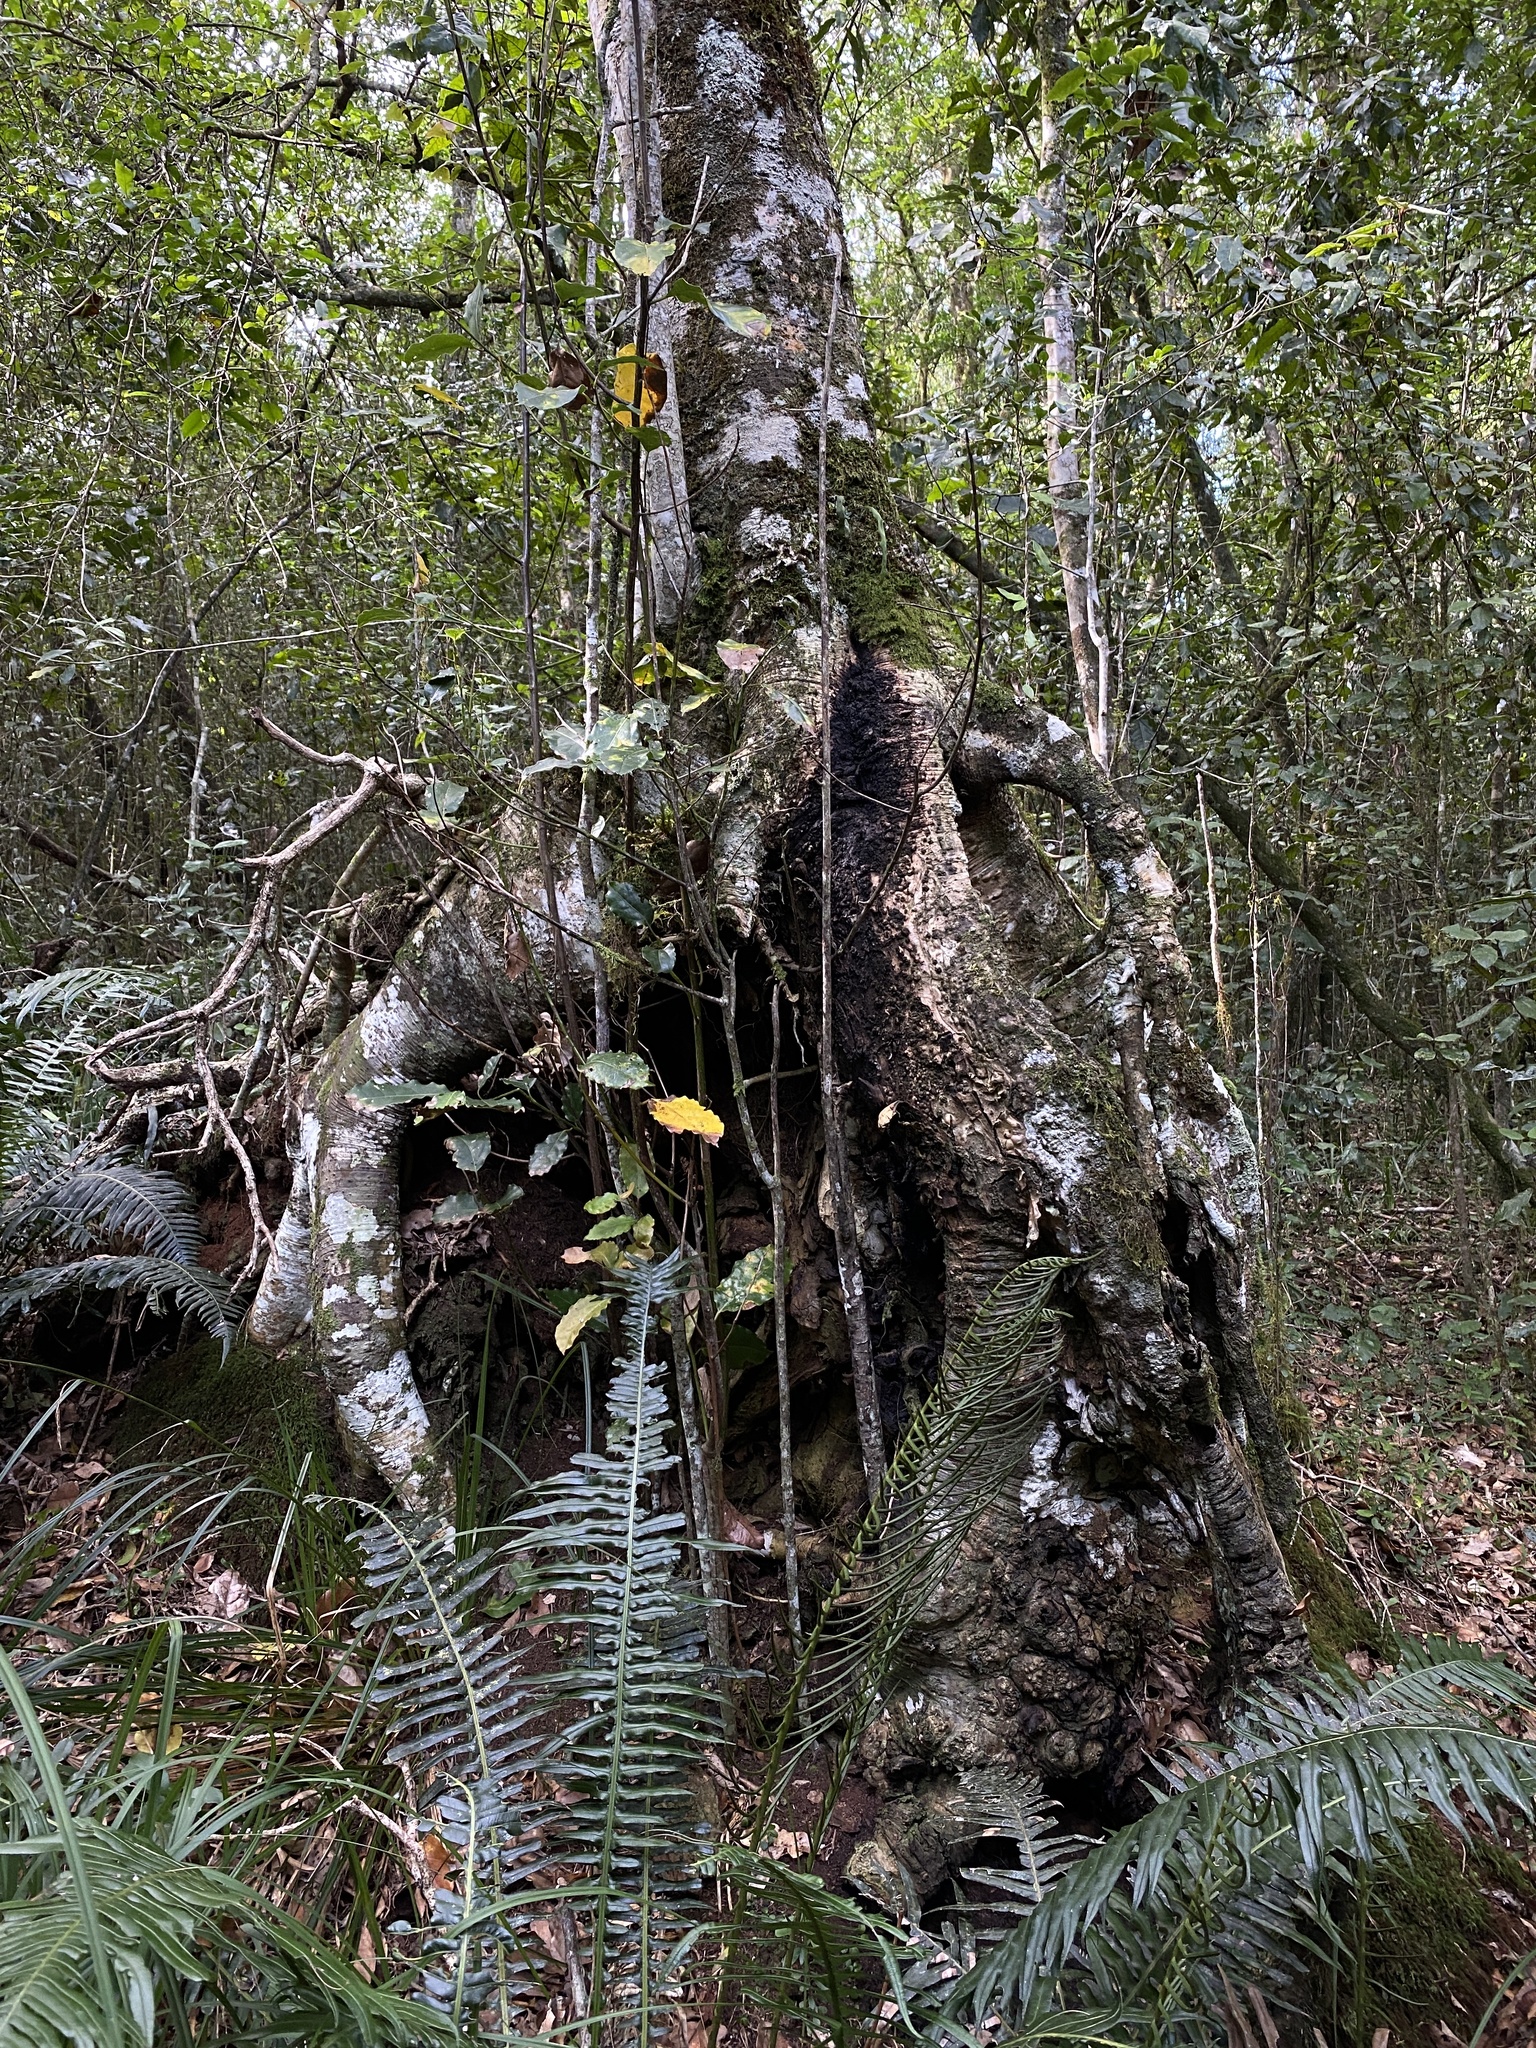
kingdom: Plantae
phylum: Tracheophyta
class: Magnoliopsida
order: Laurales
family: Lauraceae
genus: Ocotea
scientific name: Ocotea bullata
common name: Black stinkwood
